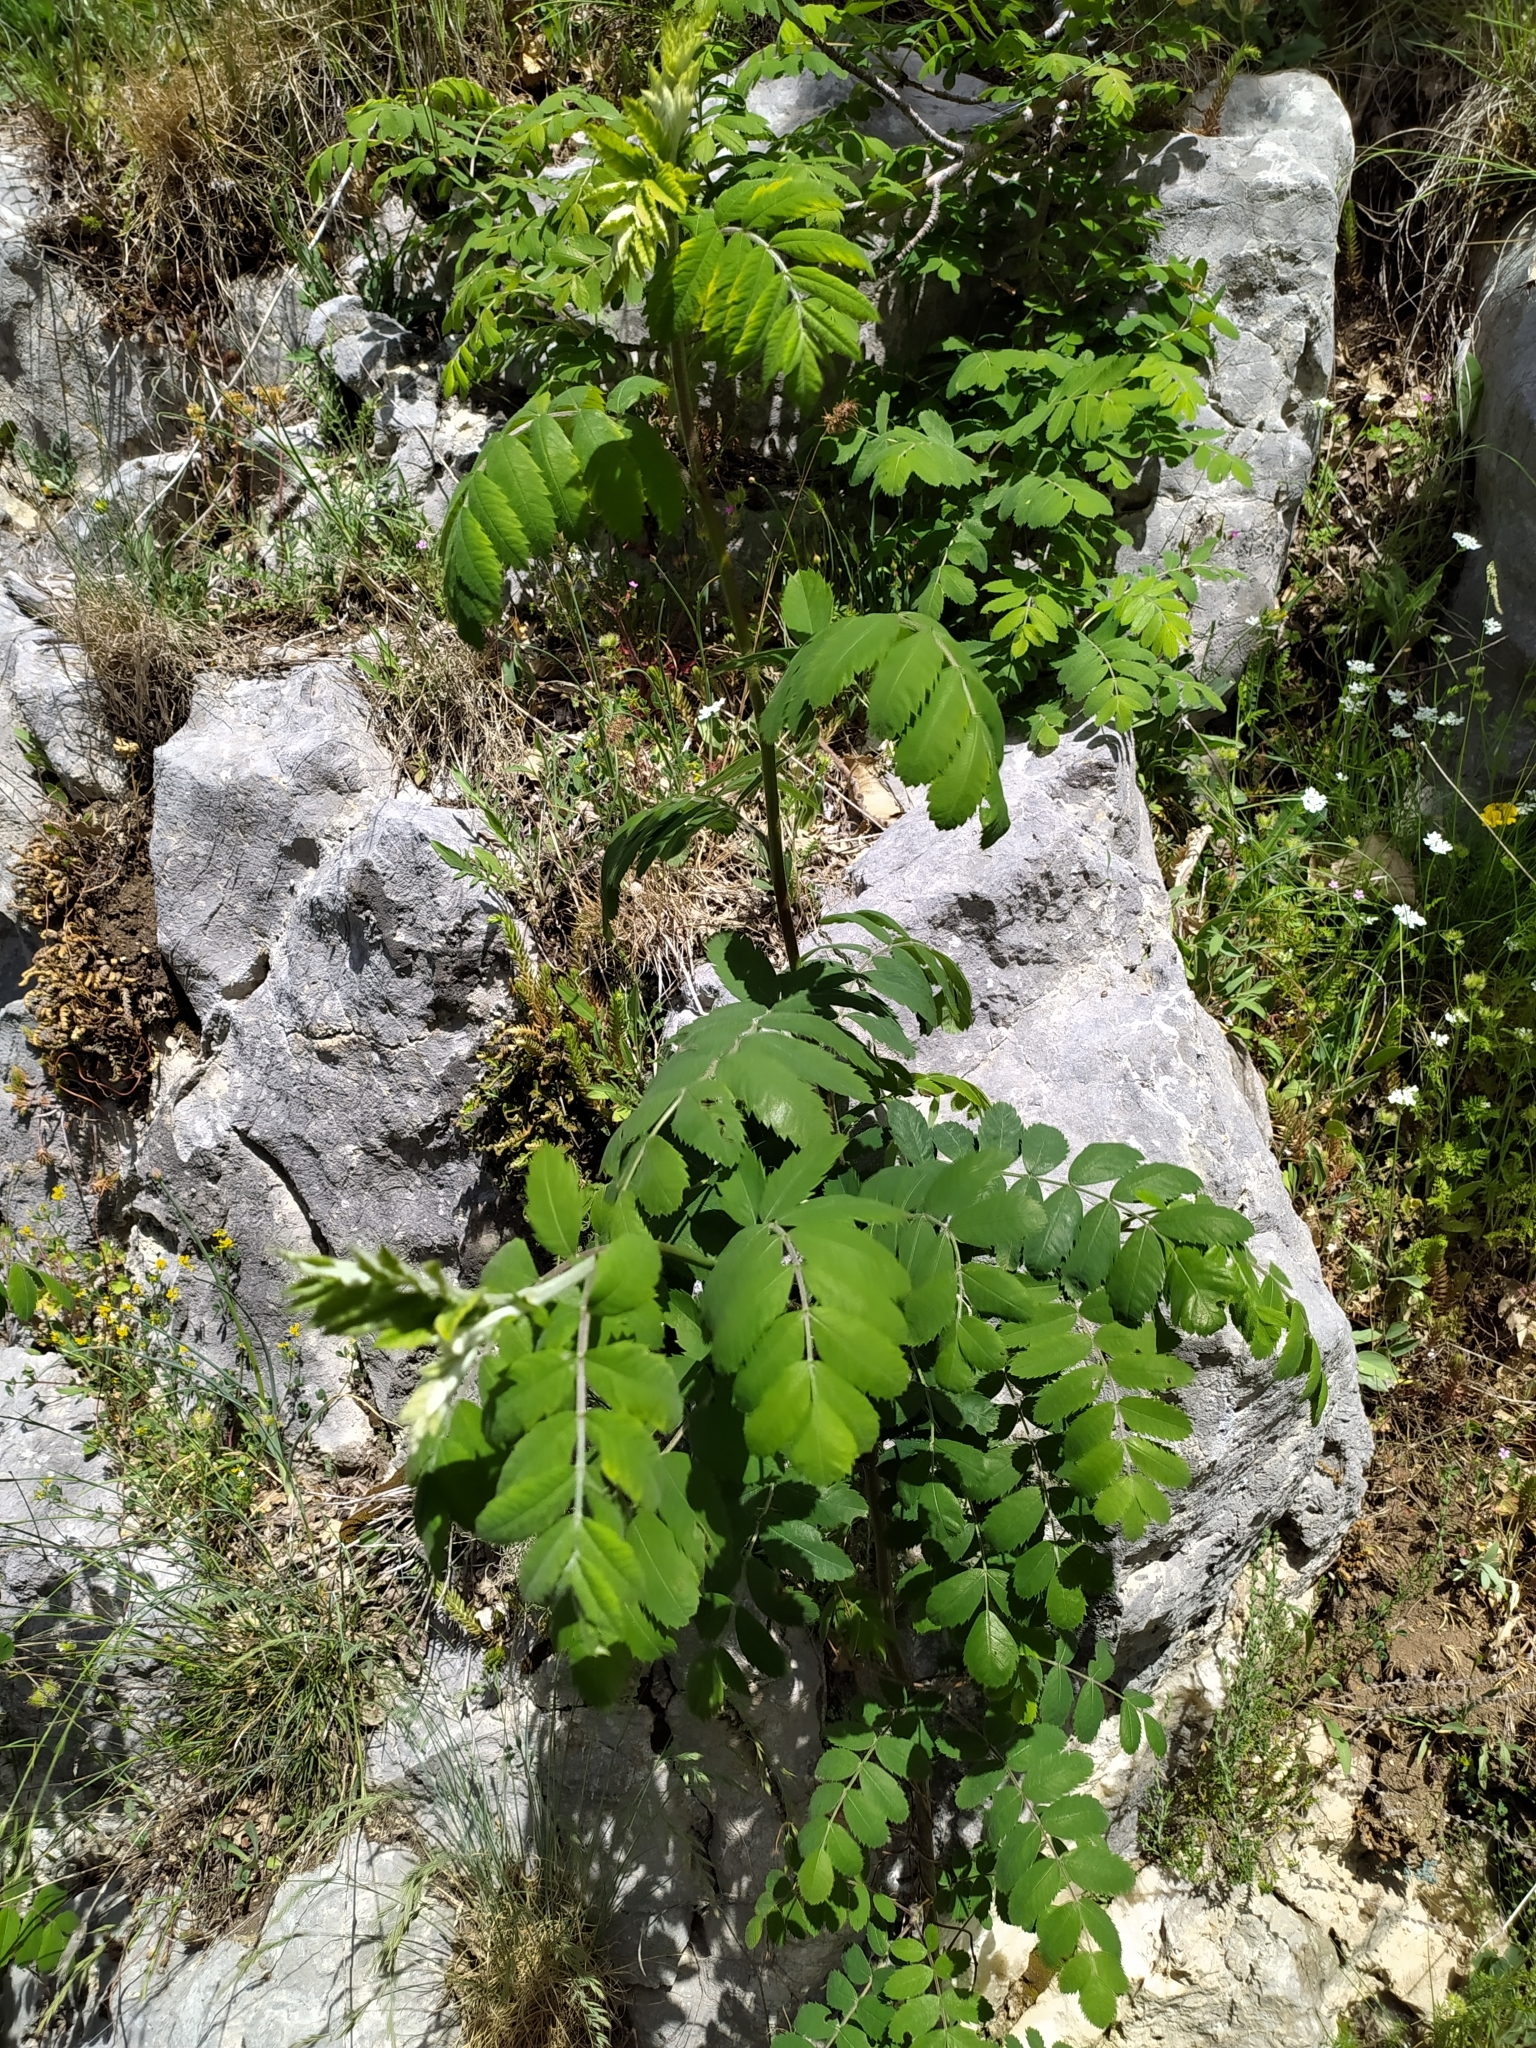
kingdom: Plantae
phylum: Tracheophyta
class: Magnoliopsida
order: Rosales
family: Rosaceae
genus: Sorbus
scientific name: Sorbus aucuparia
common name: Rowan
